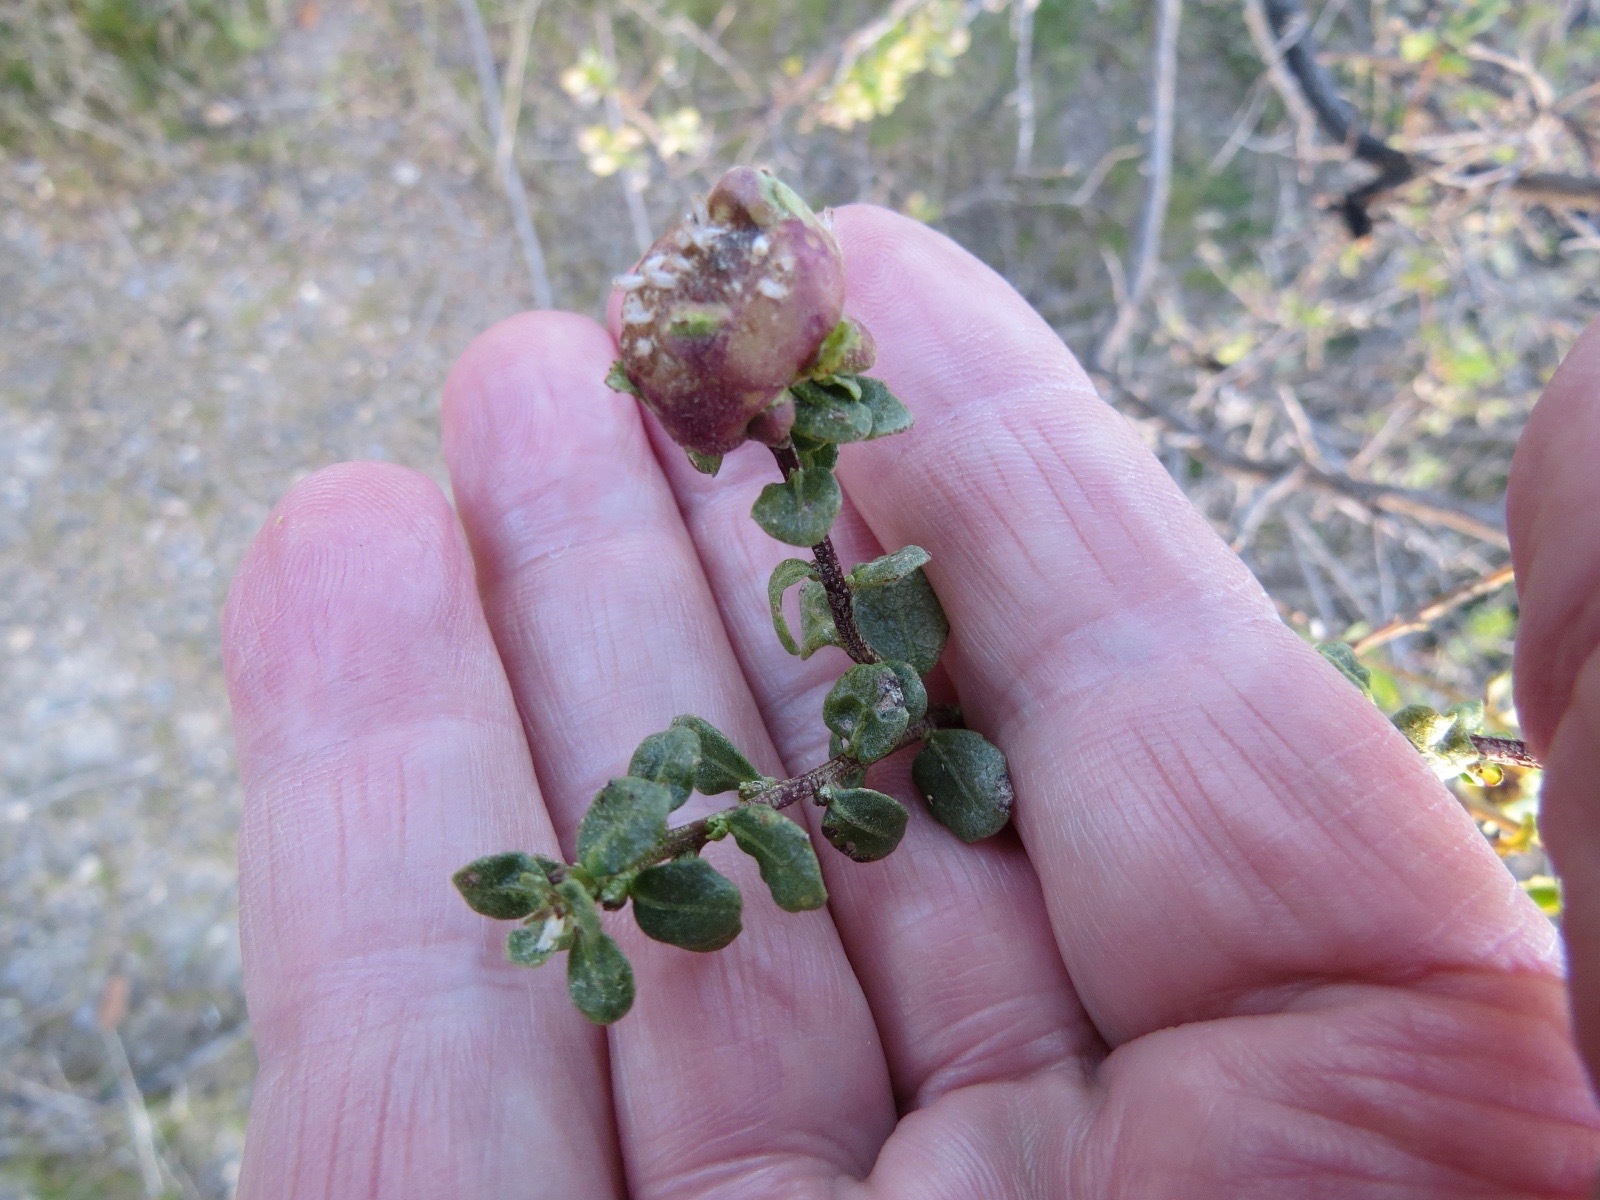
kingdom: Animalia
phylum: Arthropoda
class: Insecta
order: Diptera
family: Cecidomyiidae
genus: Rhopalomyia
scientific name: Rhopalomyia californica
